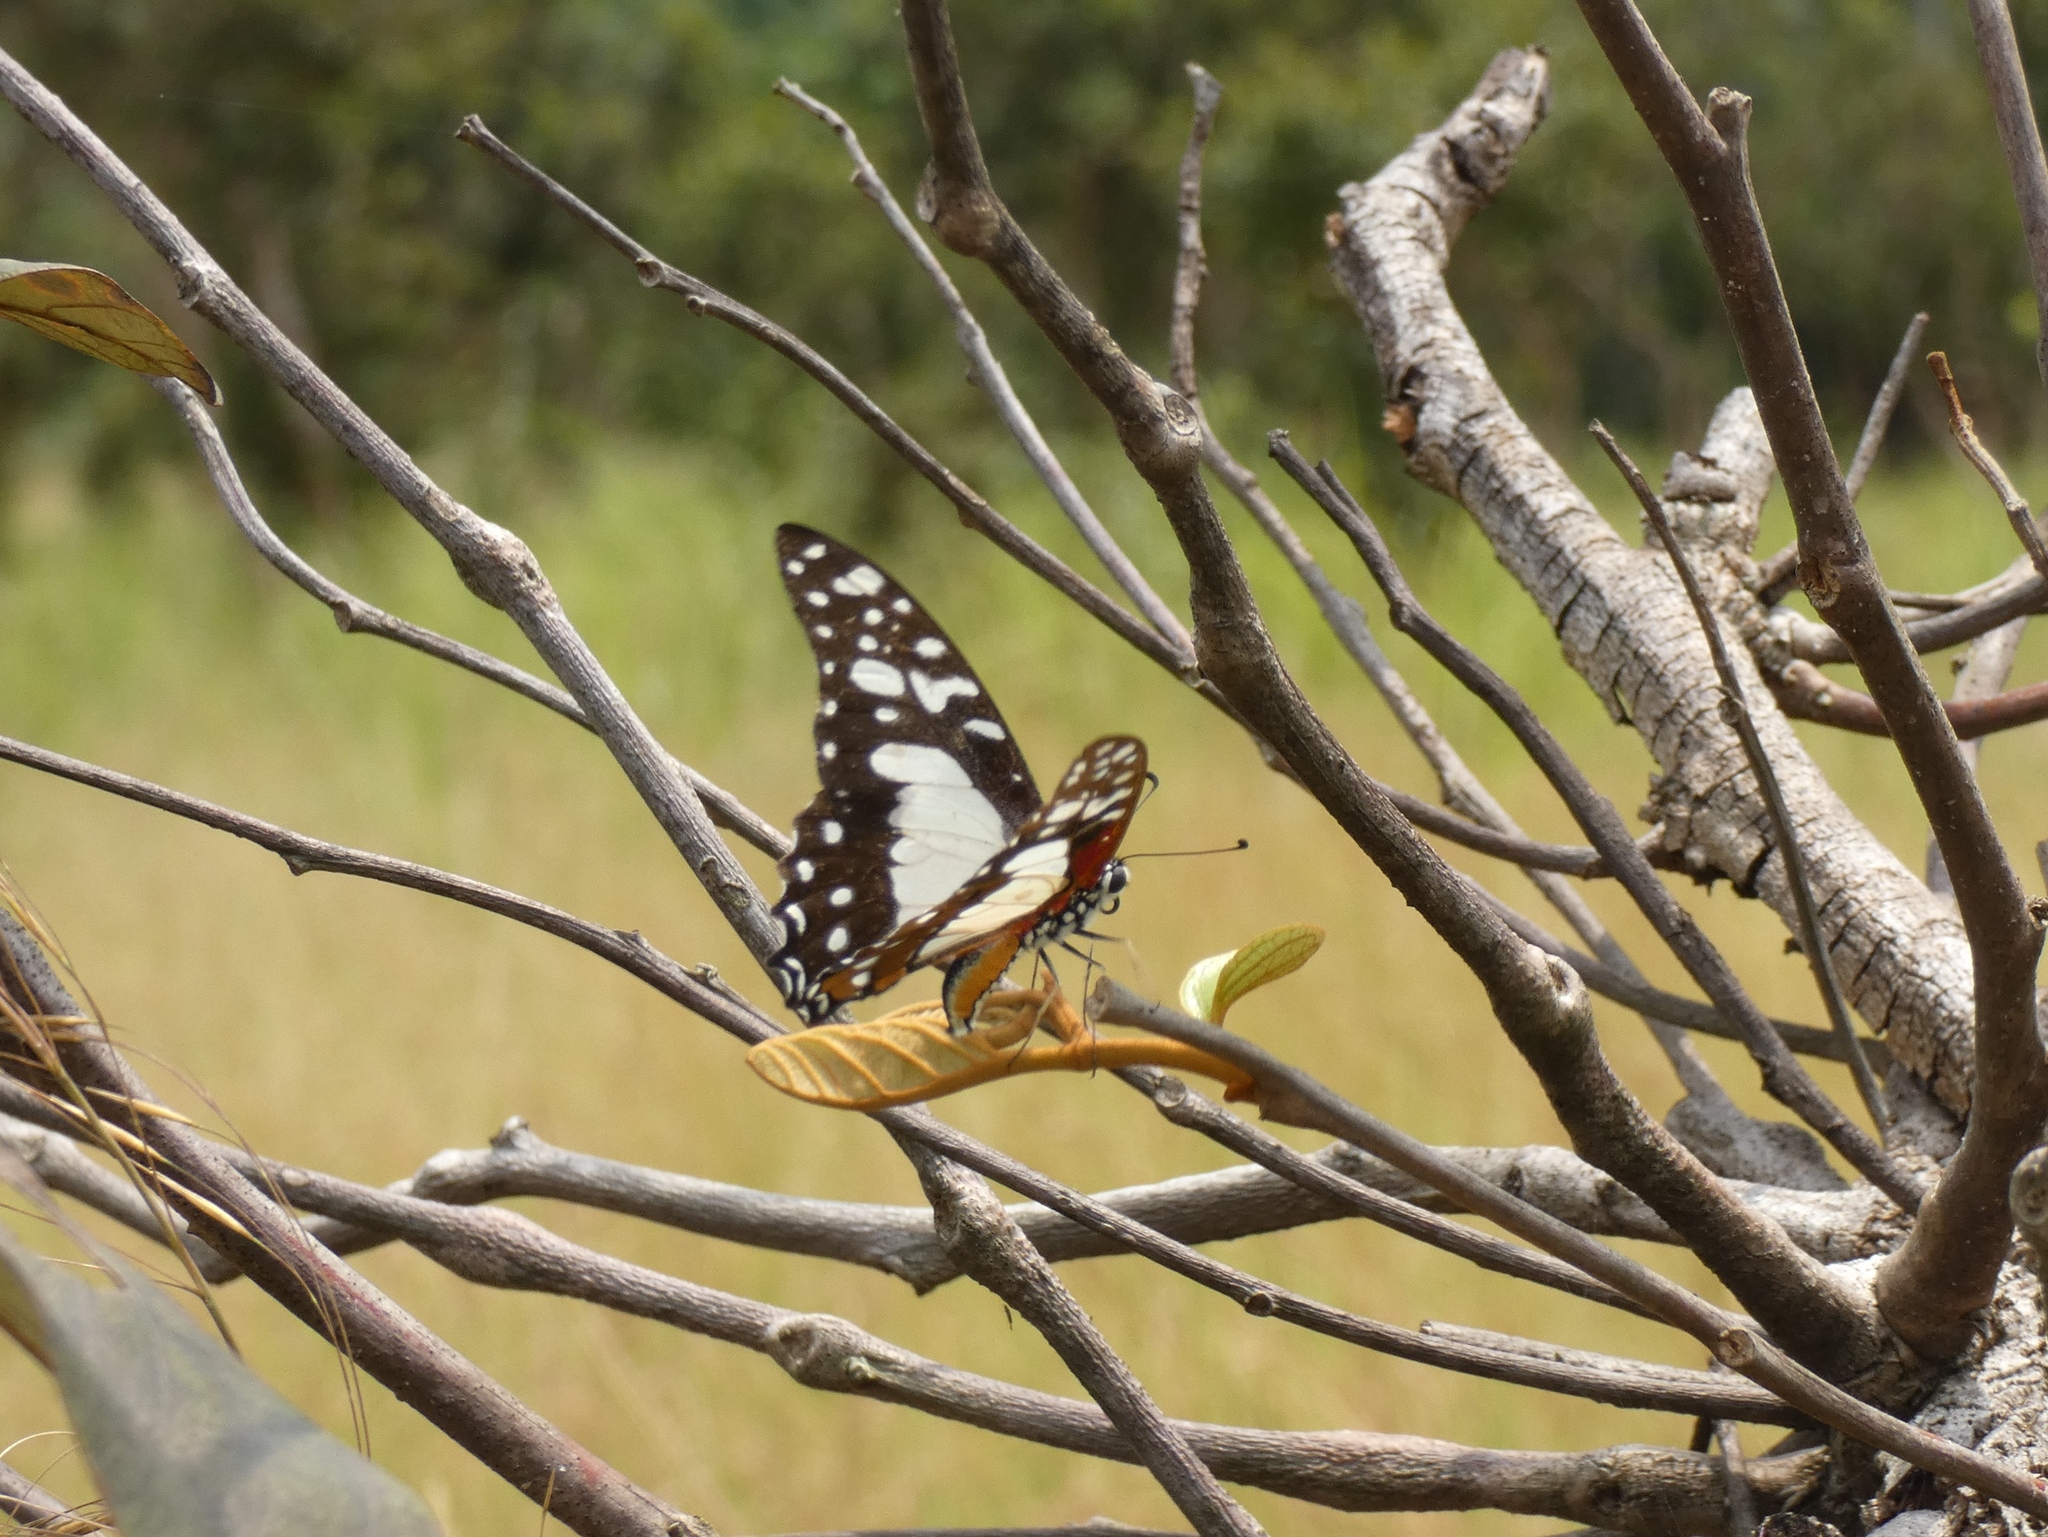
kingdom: Animalia
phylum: Arthropoda
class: Insecta
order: Lepidoptera
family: Papilionidae
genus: Graphium
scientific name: Graphium angolanus
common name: Angola white-lady swordtail
